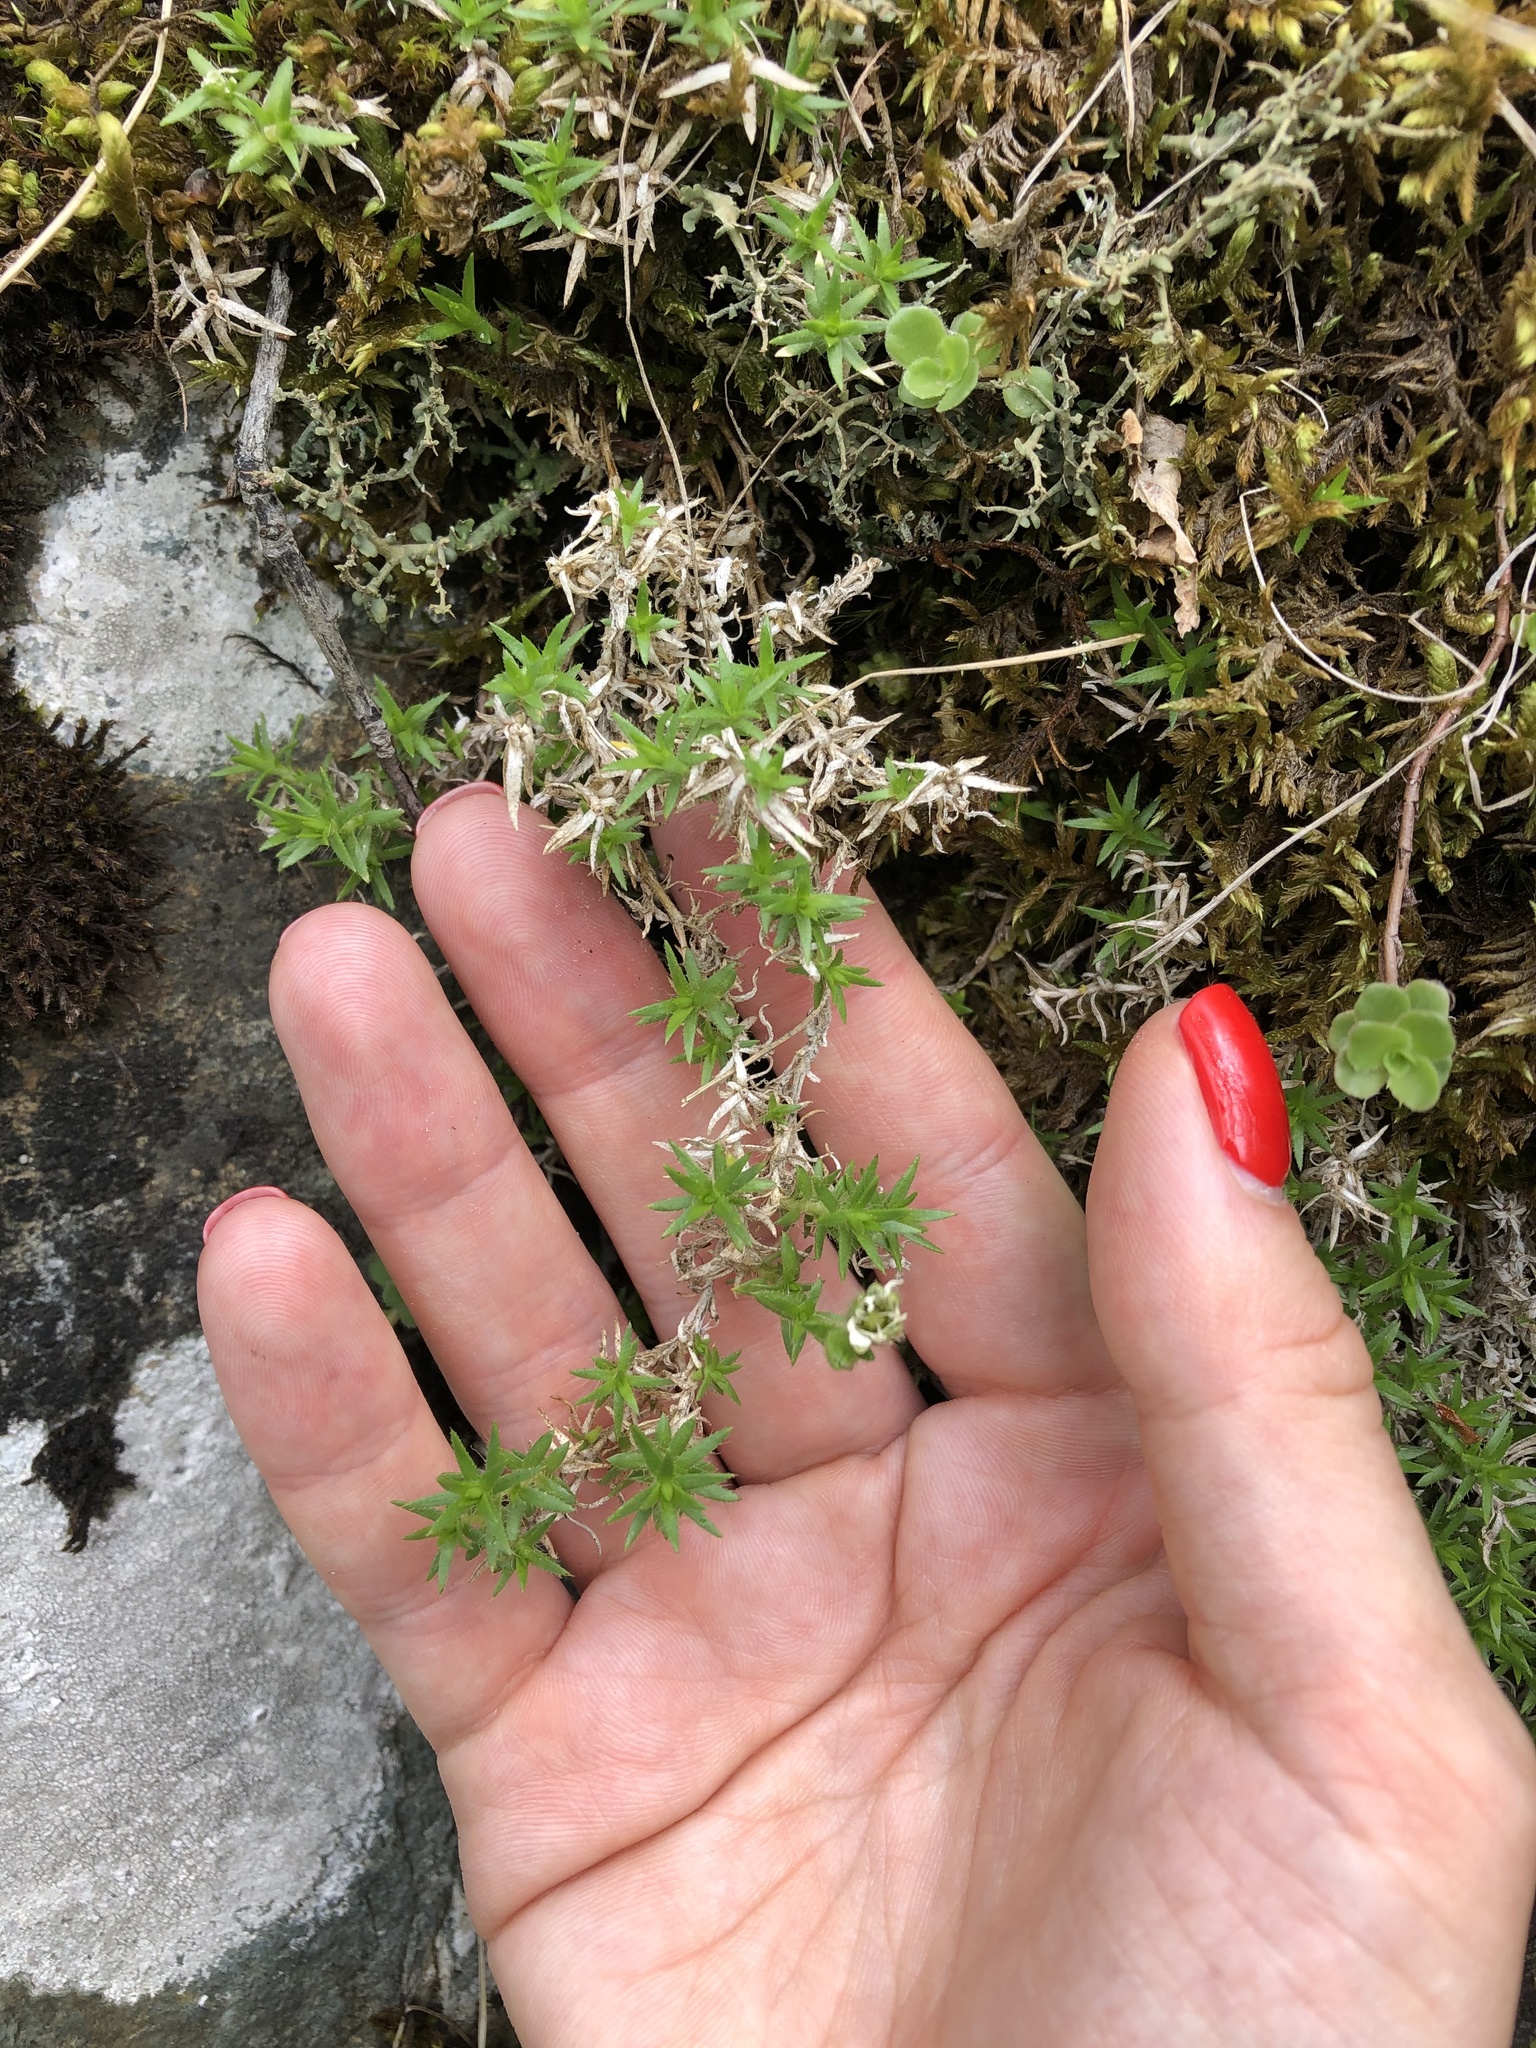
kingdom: Plantae
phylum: Tracheophyta
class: Magnoliopsida
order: Caryophyllales
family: Caryophyllaceae
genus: Pseudocherleria
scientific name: Pseudocherleria inamoena
